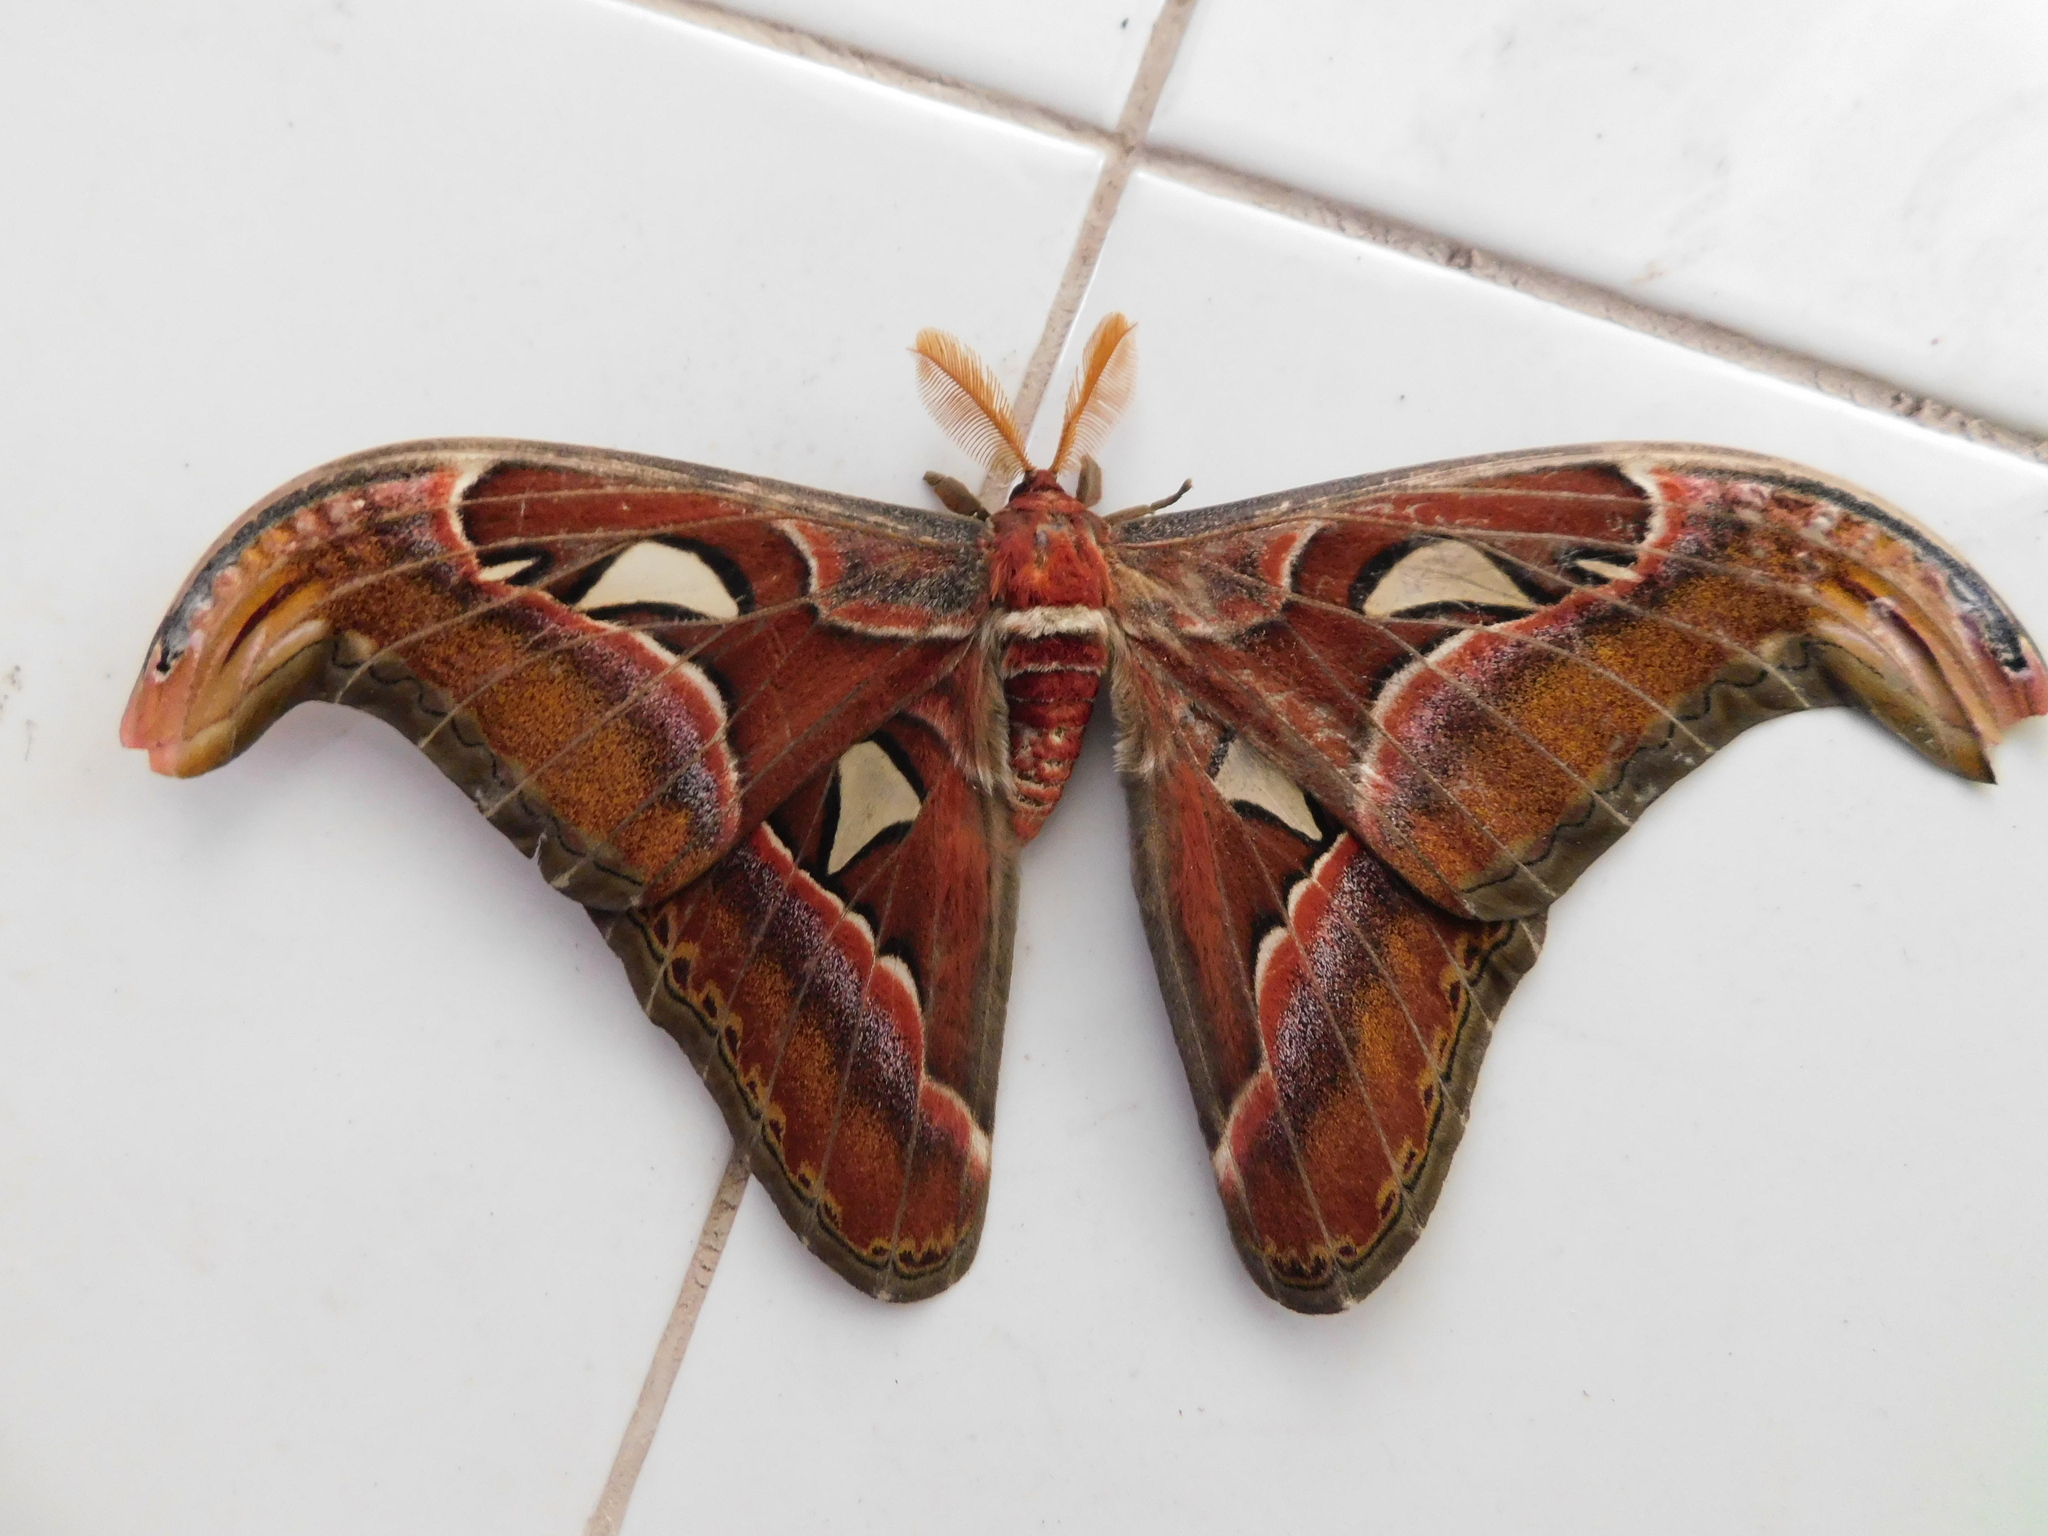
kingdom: Animalia
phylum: Arthropoda
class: Insecta
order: Lepidoptera
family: Saturniidae
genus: Attacus
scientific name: Attacus atlas
